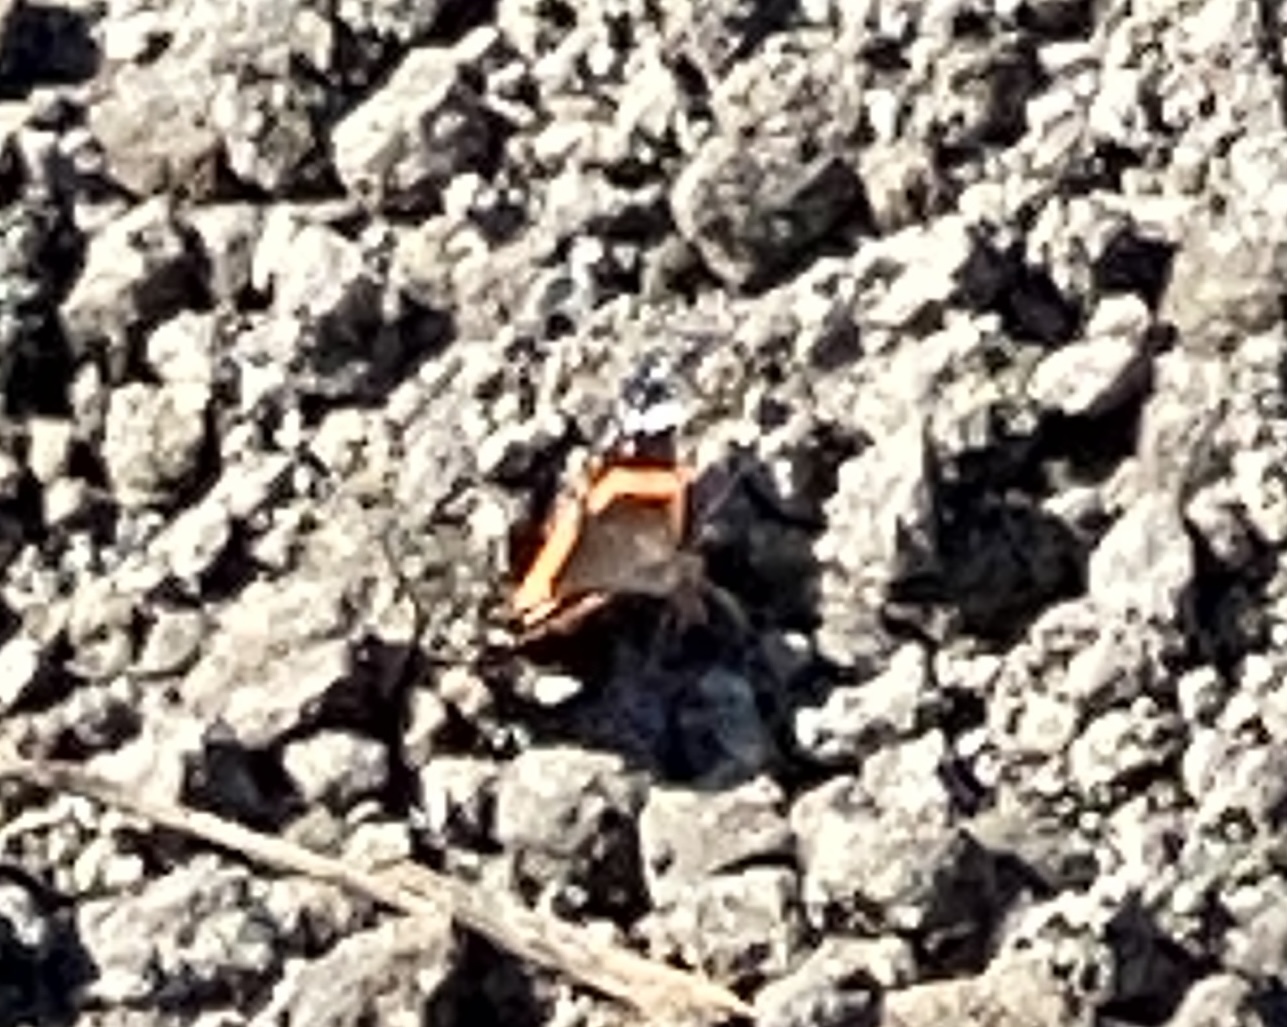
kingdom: Animalia
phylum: Arthropoda
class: Insecta
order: Lepidoptera
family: Nymphalidae
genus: Vanessa
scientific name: Vanessa atalanta
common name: Red admiral
